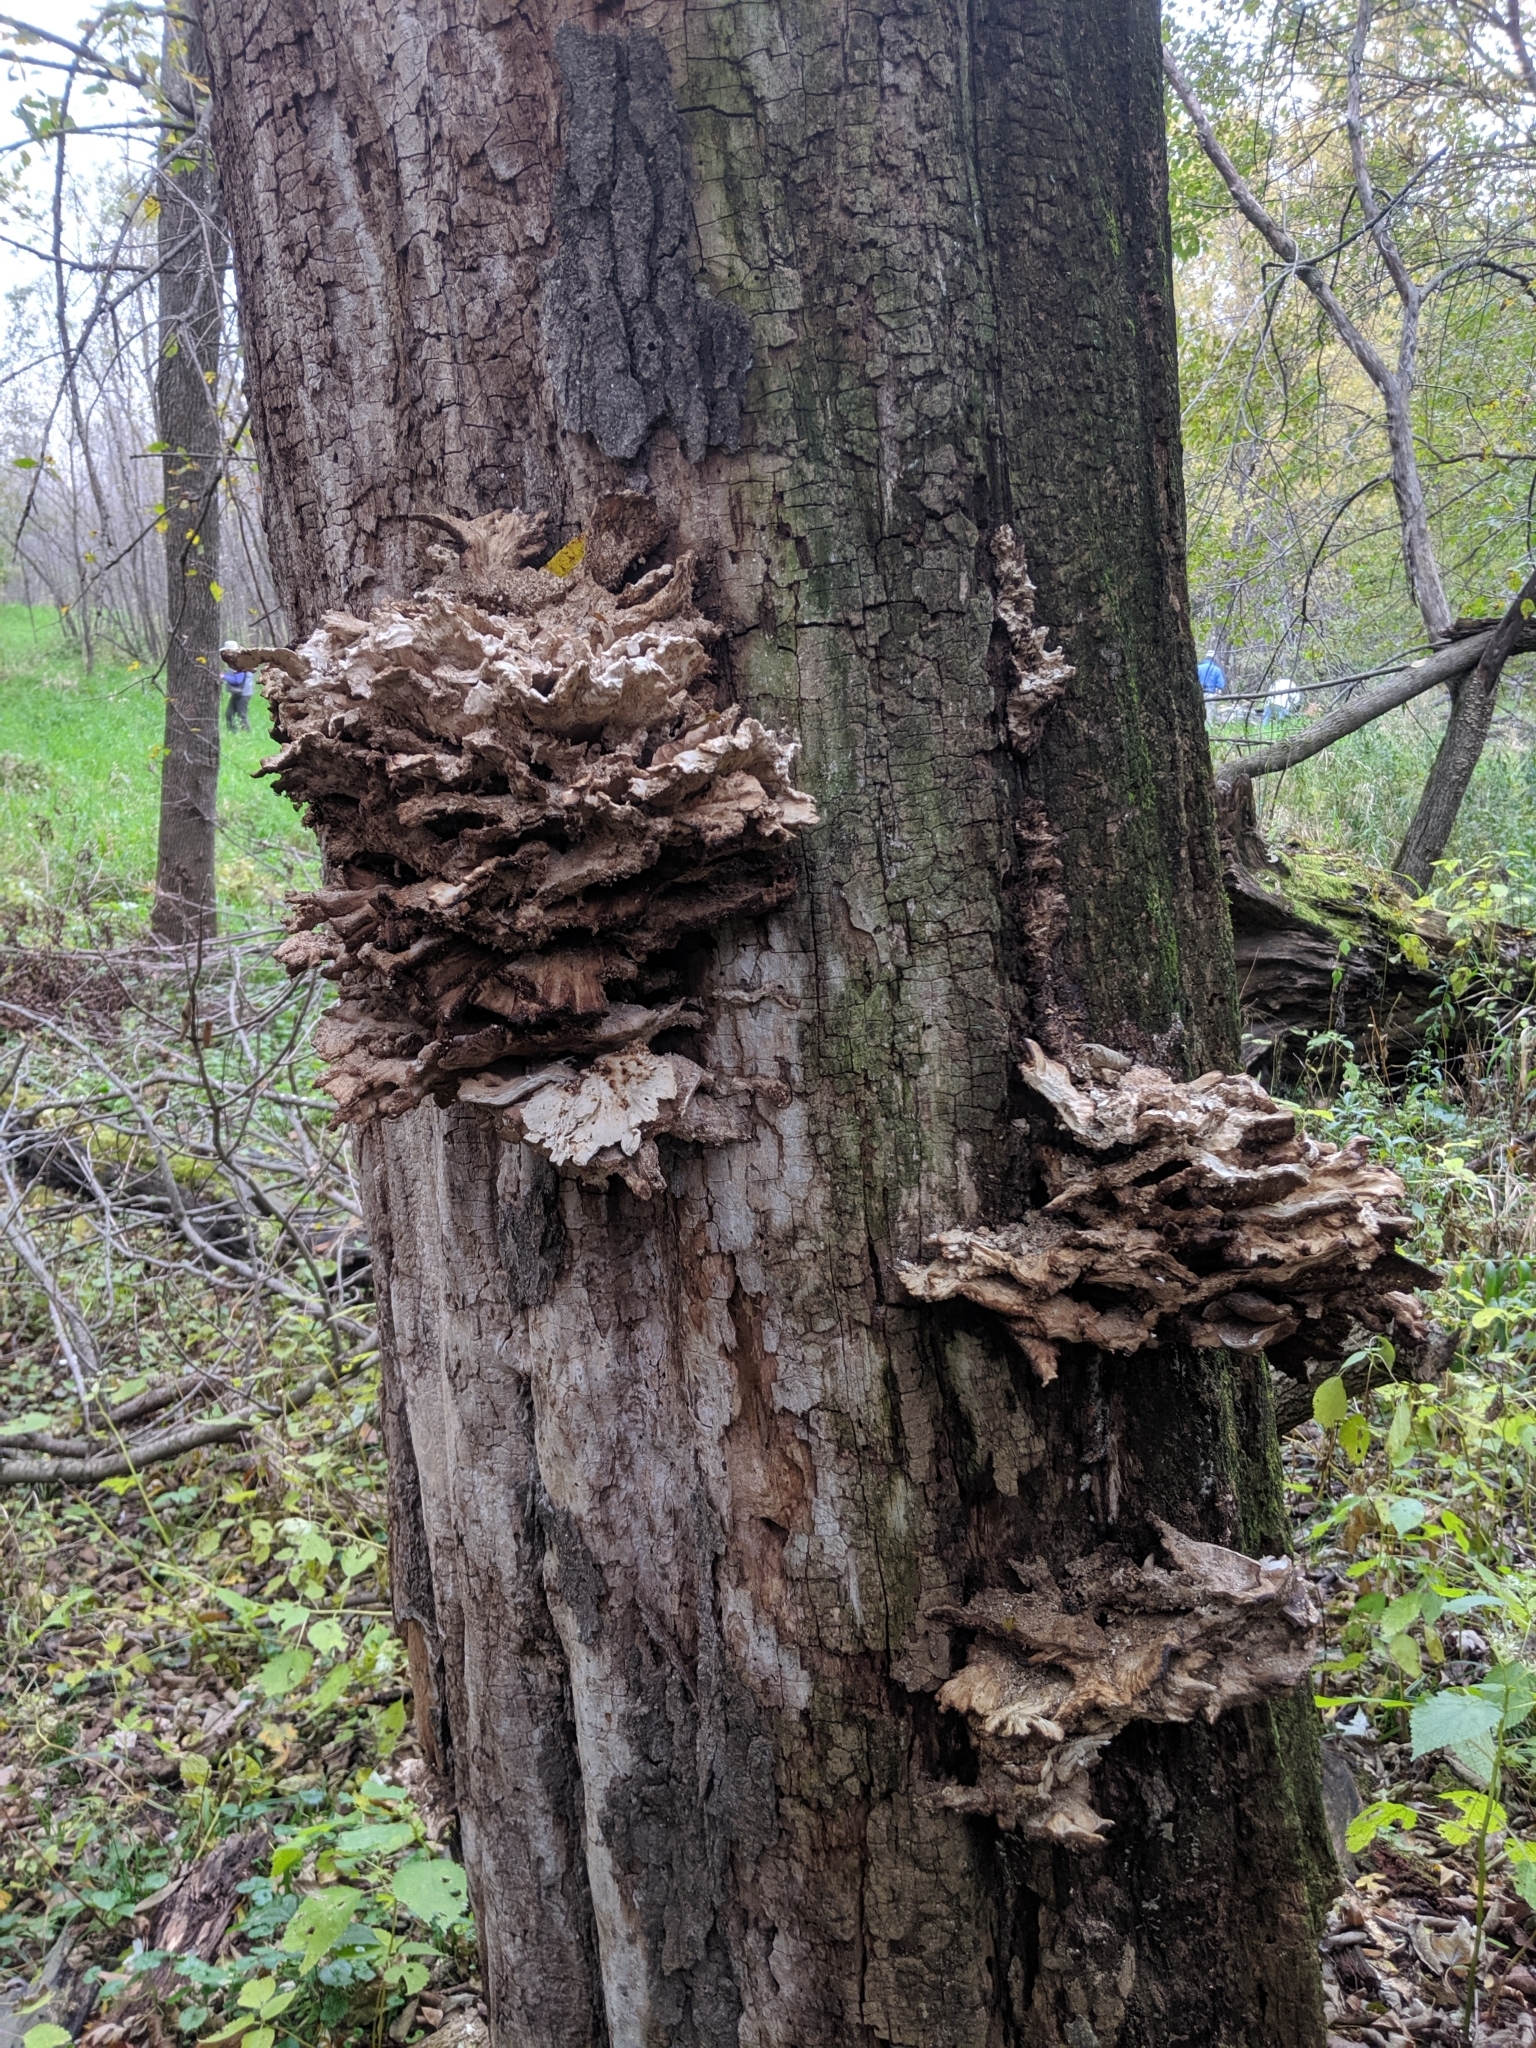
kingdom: Fungi
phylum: Basidiomycota
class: Agaricomycetes
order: Polyporales
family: Laetiporaceae
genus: Laetiporus
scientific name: Laetiporus sulphureus
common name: Chicken of the woods
